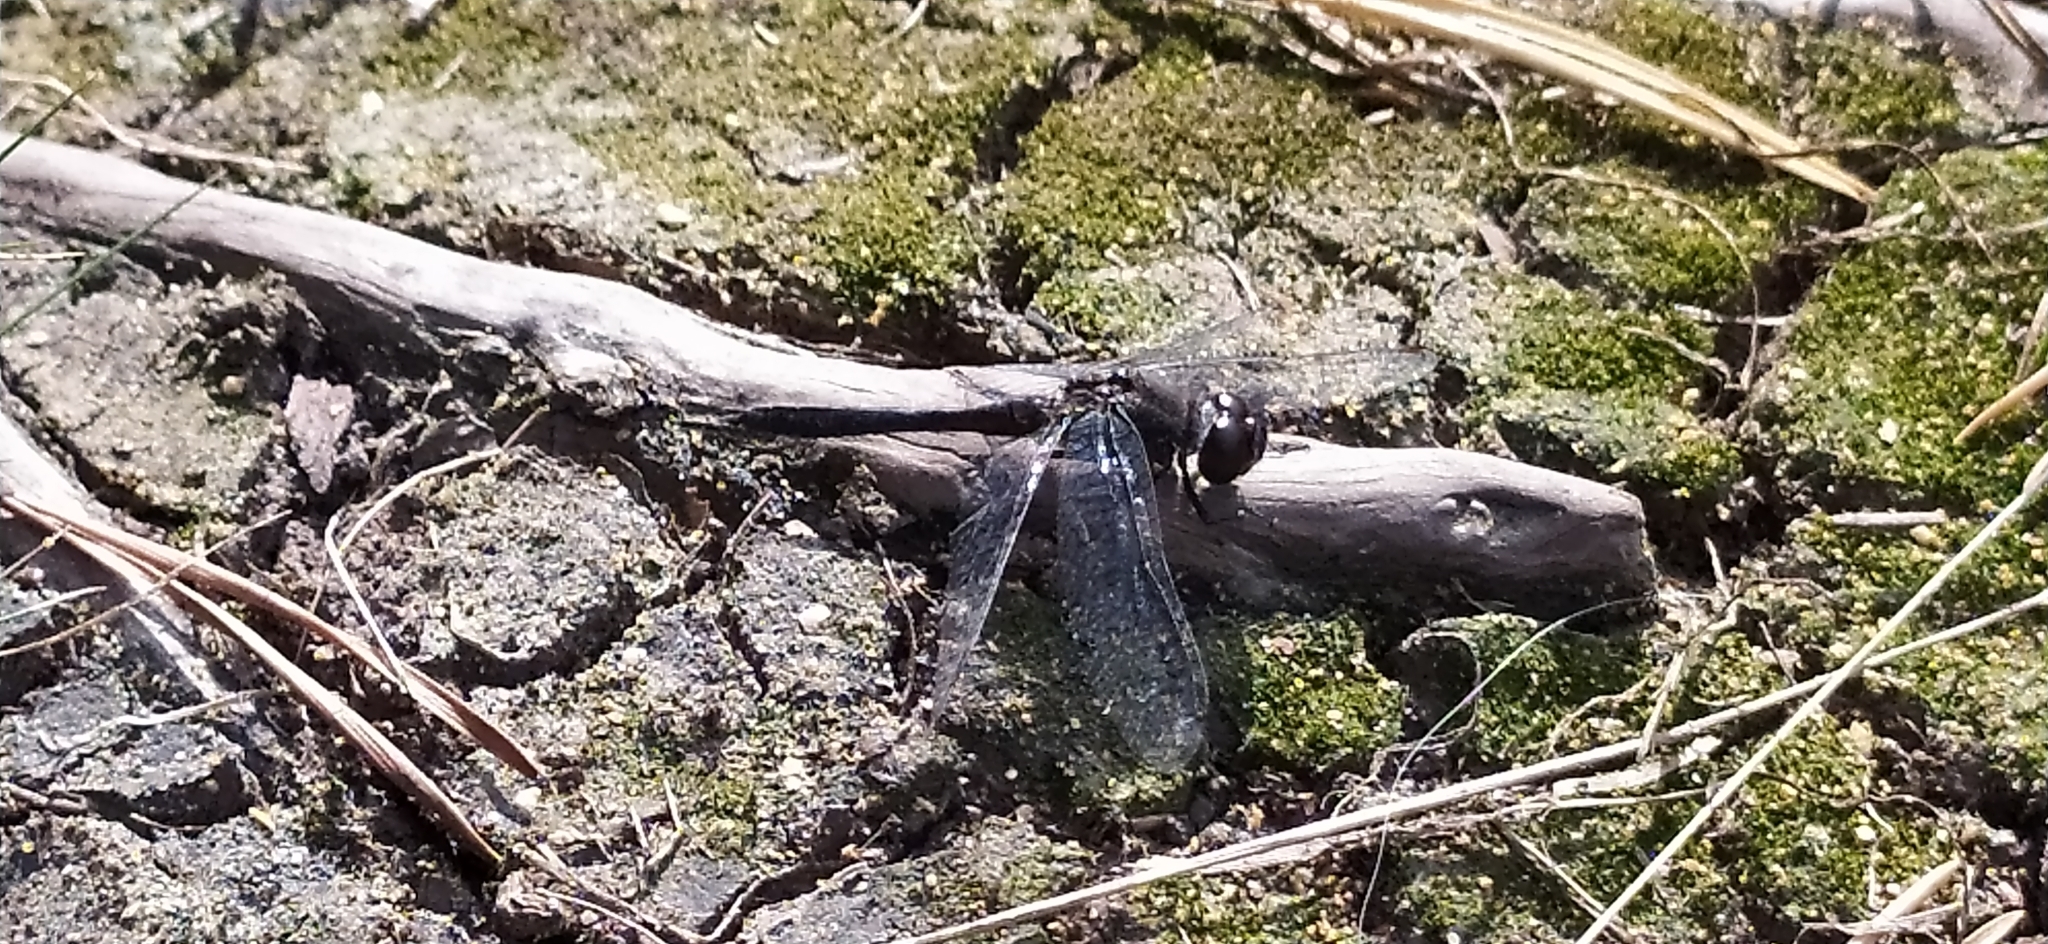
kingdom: Animalia
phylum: Arthropoda
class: Insecta
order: Odonata
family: Libellulidae
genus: Sympetrum
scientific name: Sympetrum danae
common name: Black darter
